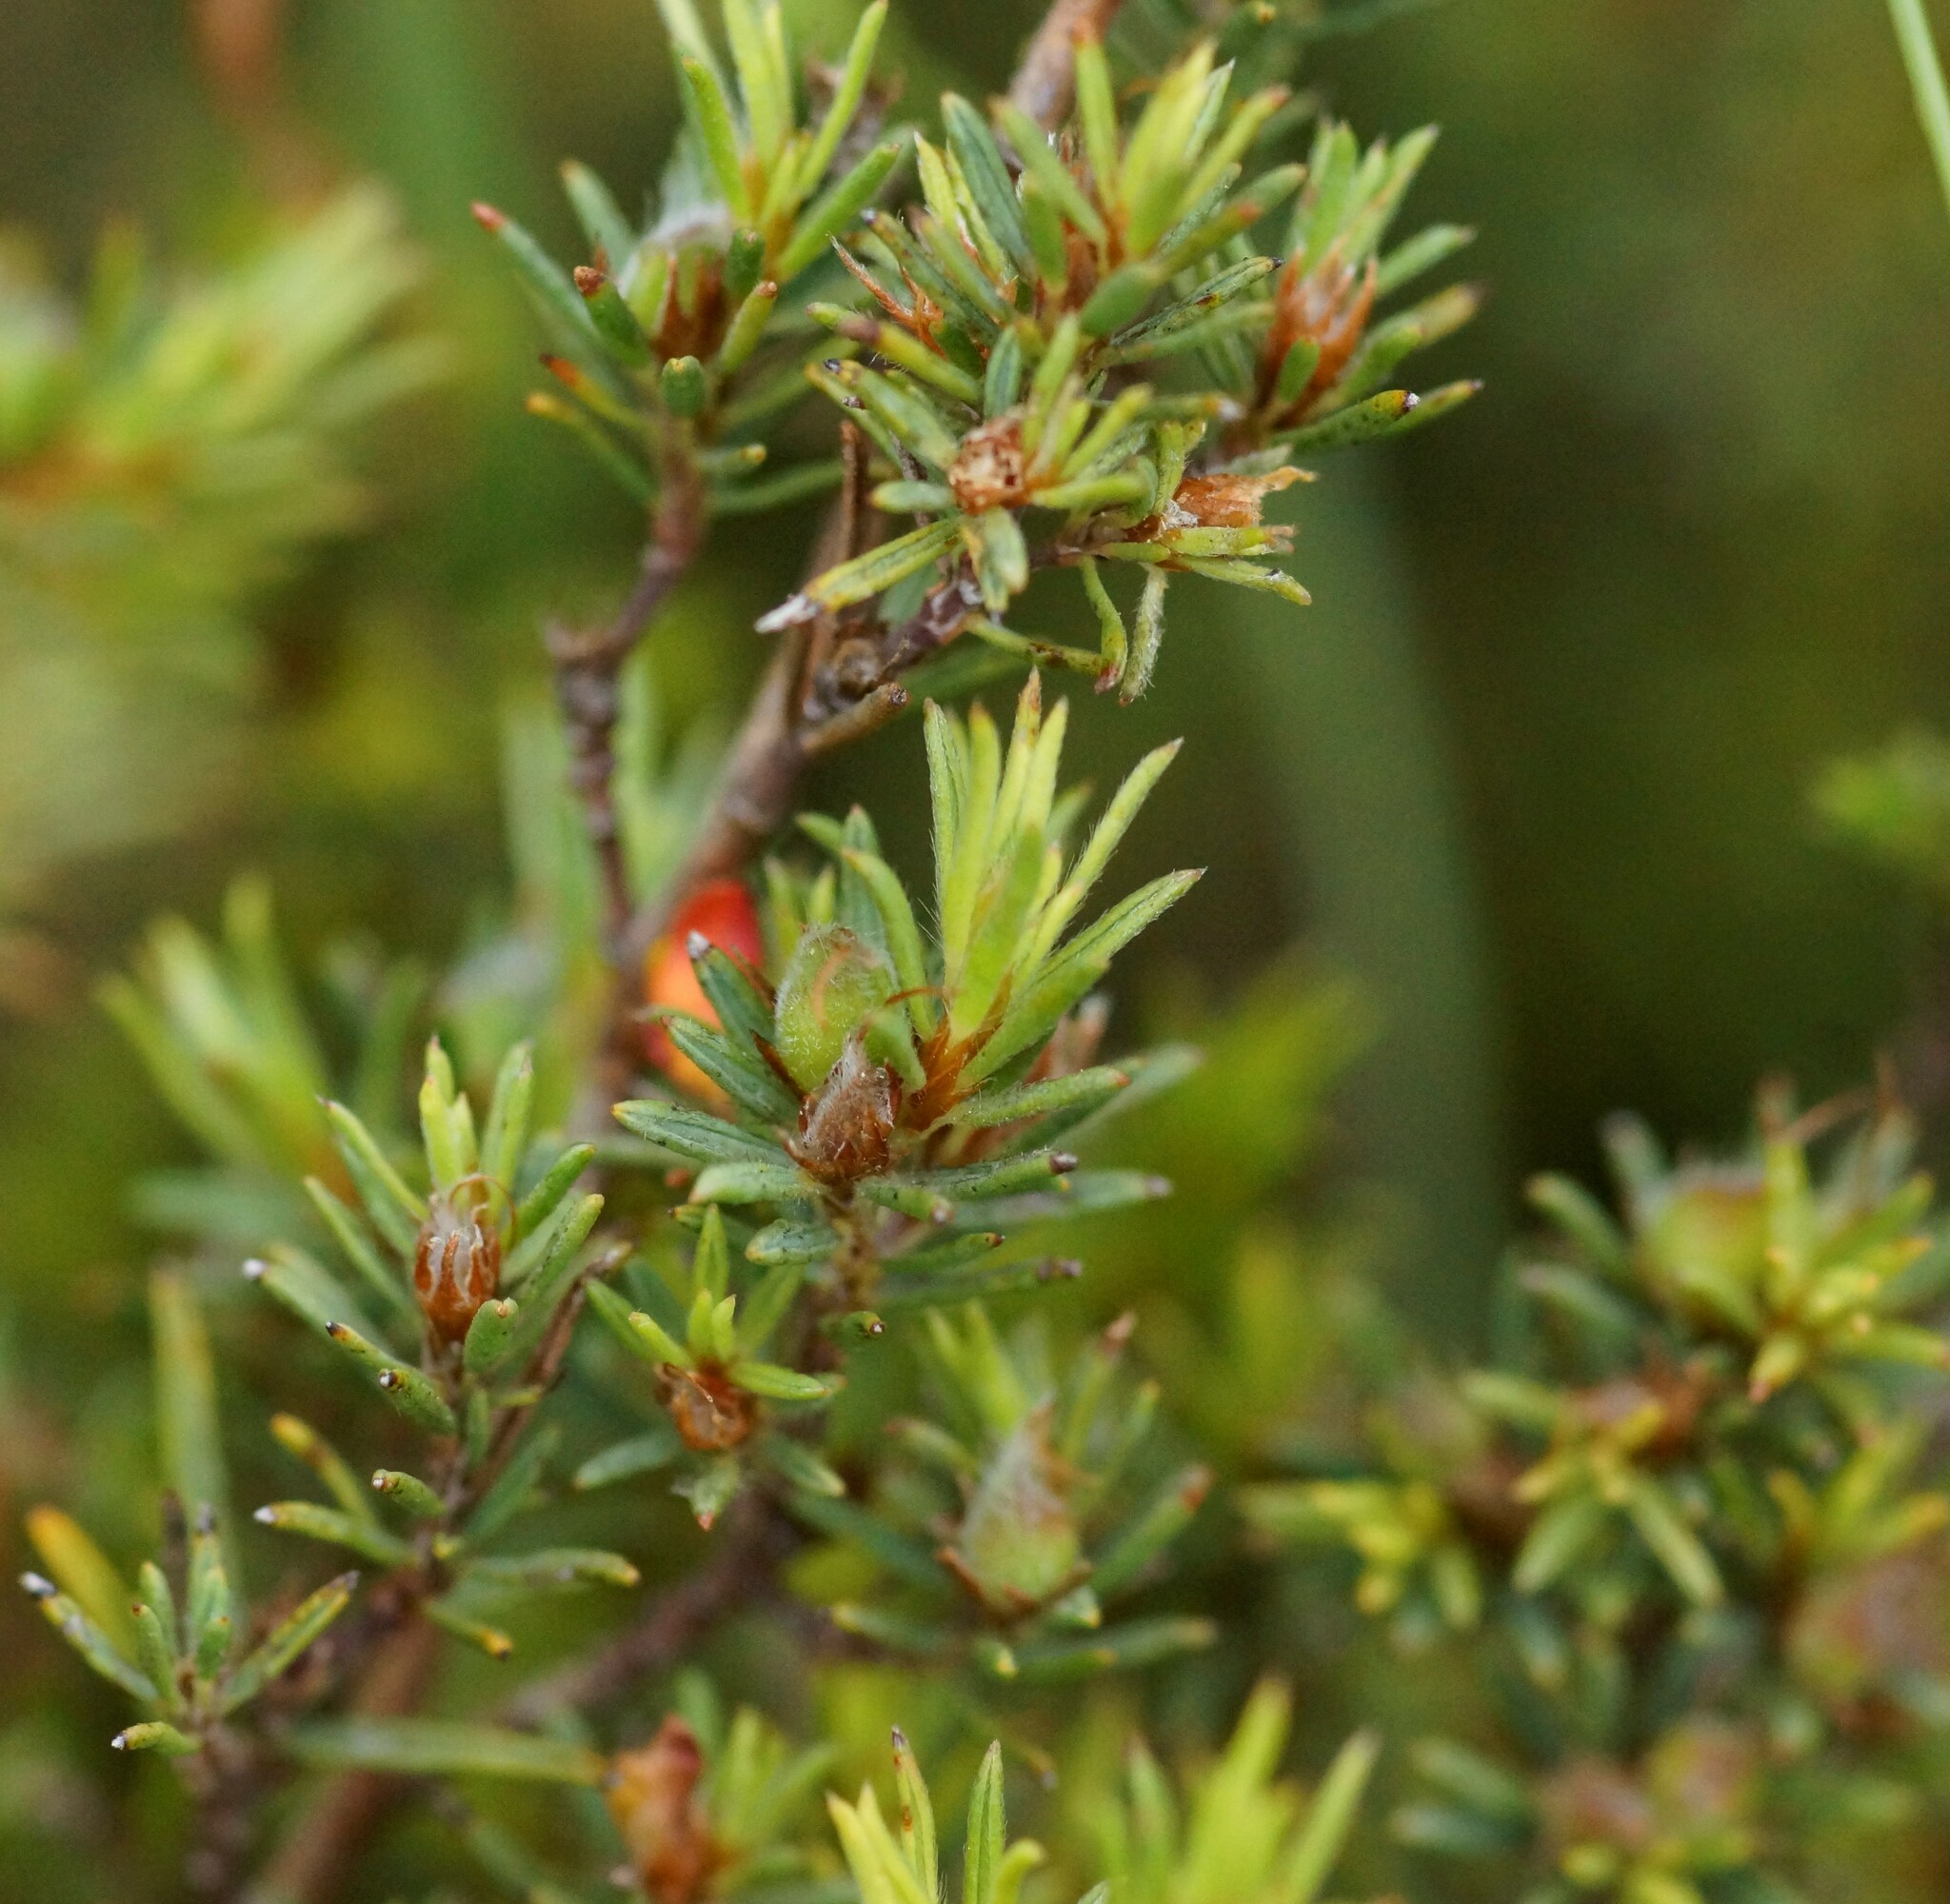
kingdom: Plantae
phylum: Tracheophyta
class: Magnoliopsida
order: Fabales
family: Fabaceae
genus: Pultenaea
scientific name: Pultenaea tenuifolia
